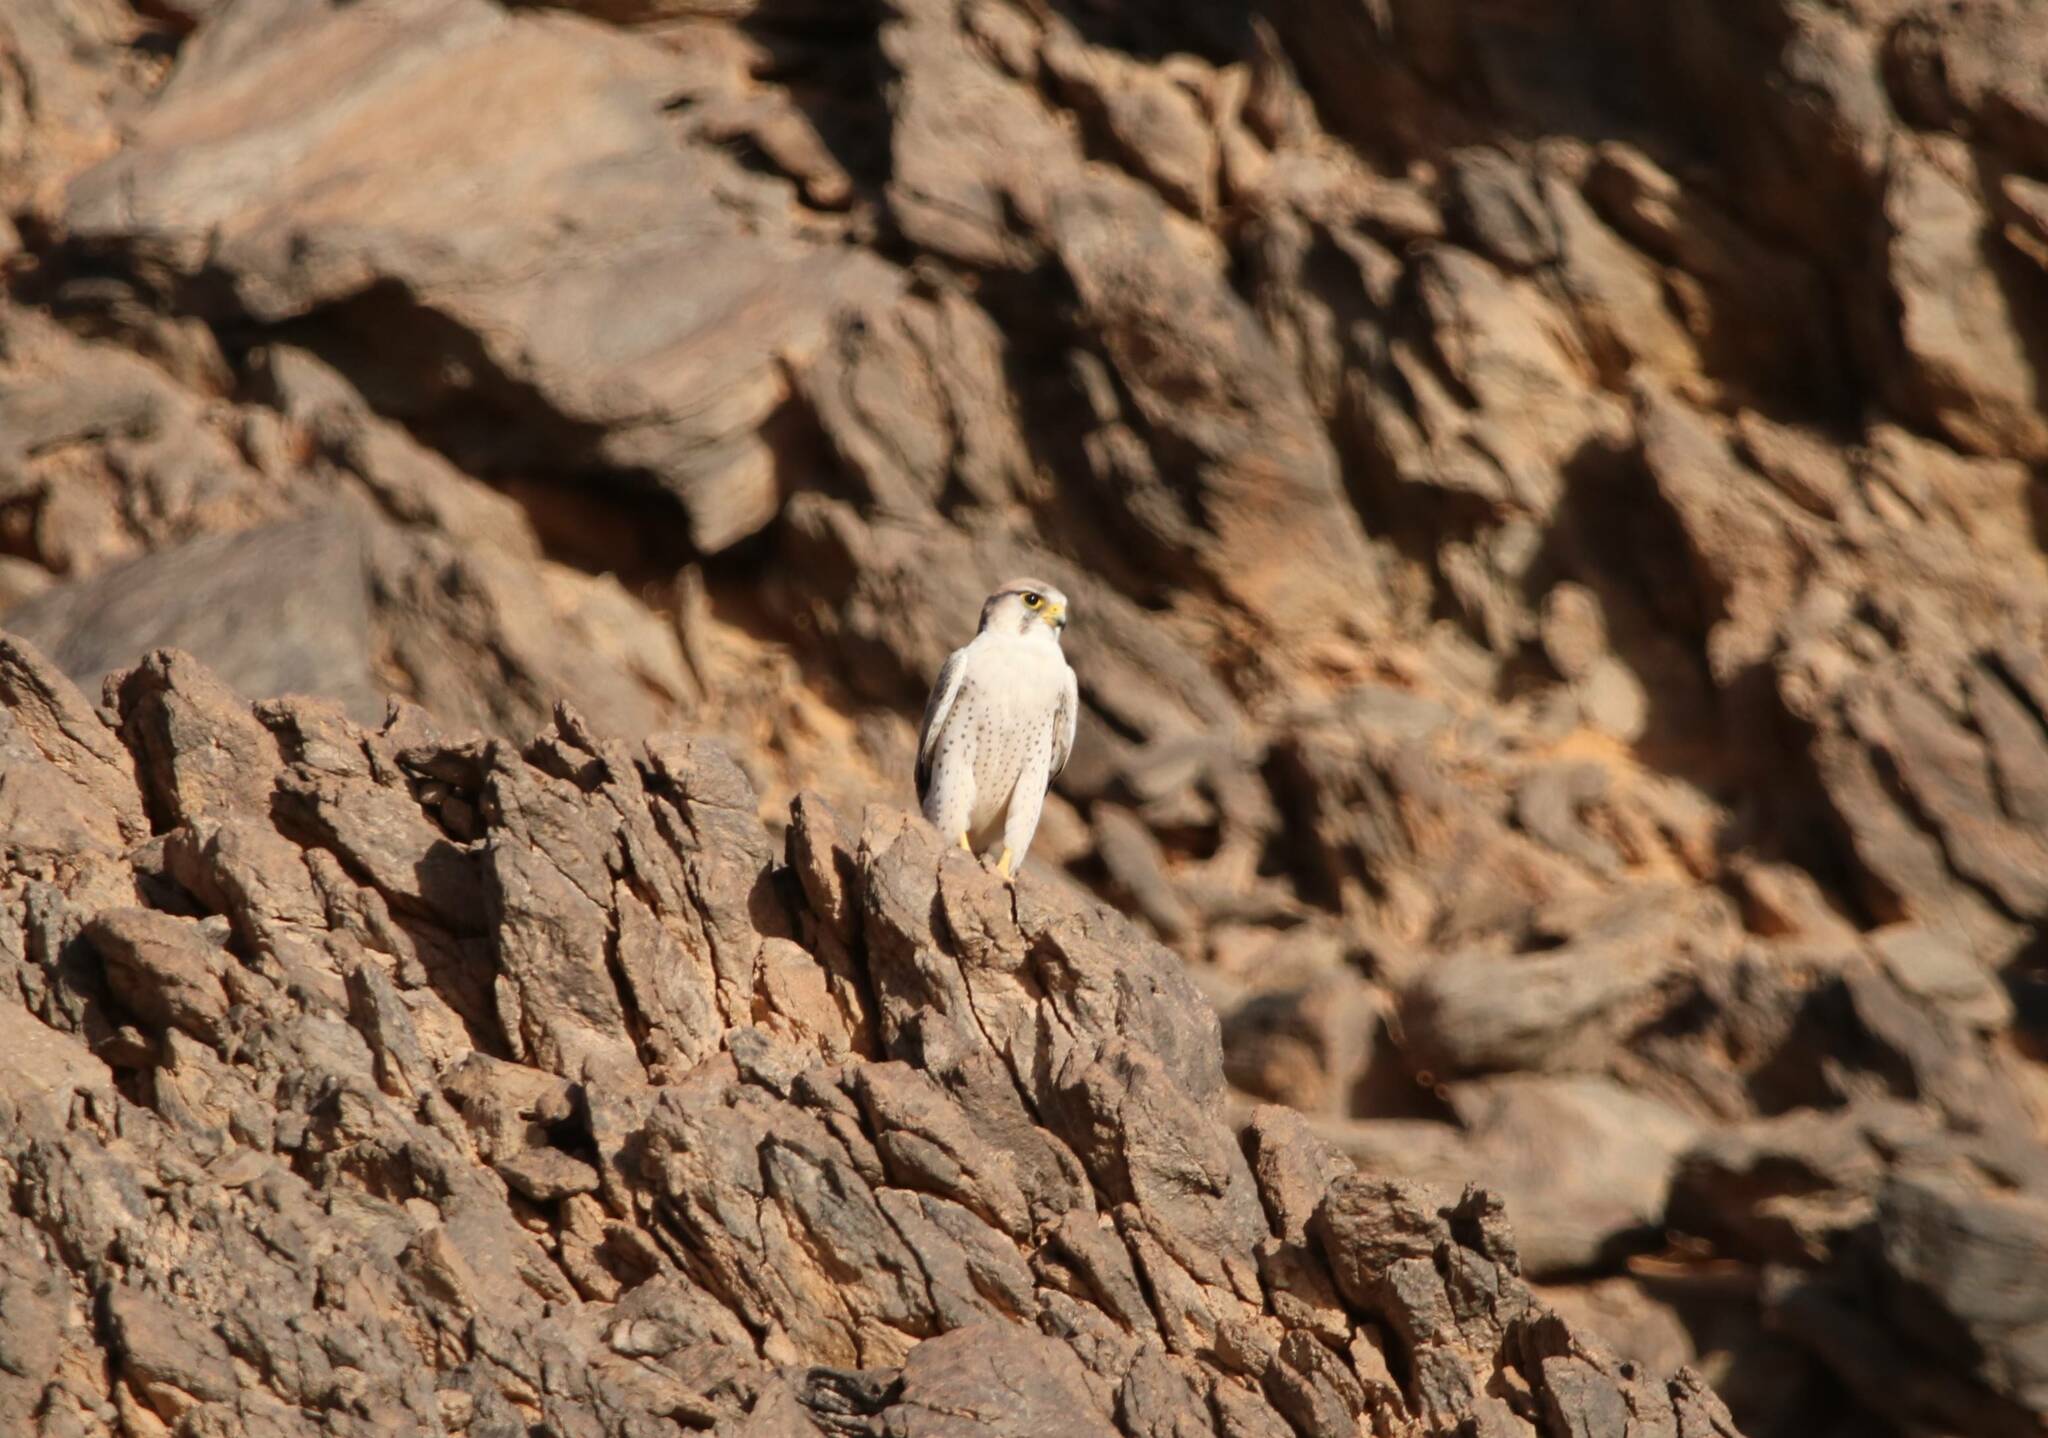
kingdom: Animalia
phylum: Chordata
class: Aves
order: Falconiformes
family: Falconidae
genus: Falco
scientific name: Falco biarmicus
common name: Lanner falcon
